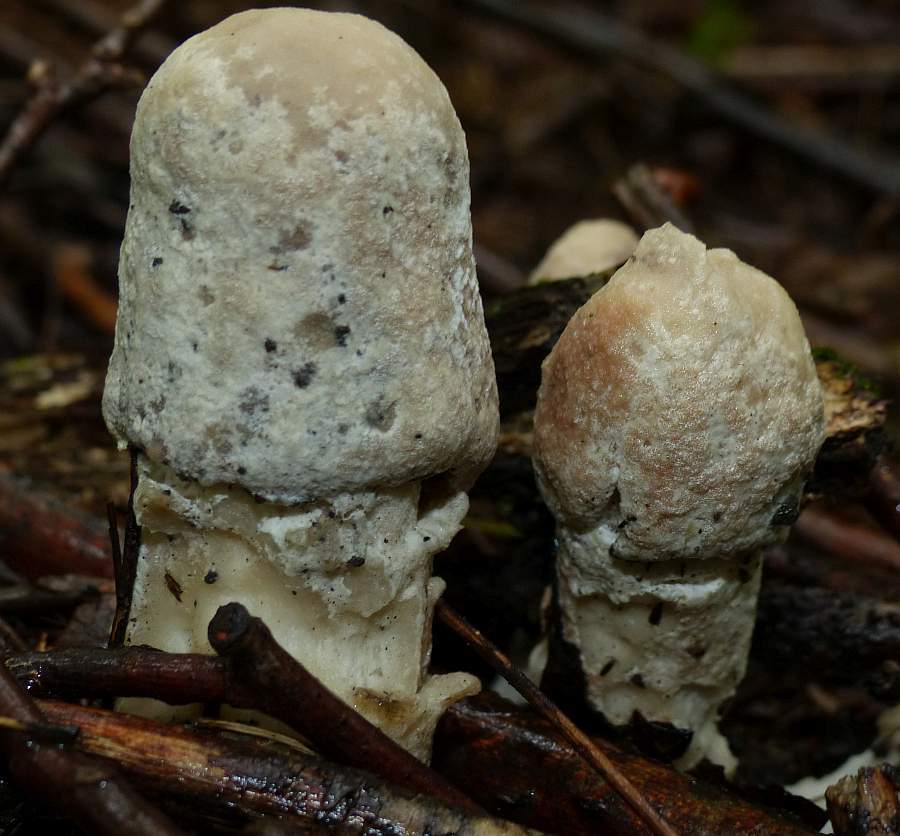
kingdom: Fungi
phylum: Ascomycota
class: Sordariomycetes
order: Hypocreales
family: Hypocreaceae
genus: Hypomyces
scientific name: Hypomyces hyalinus
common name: Amanita mold
